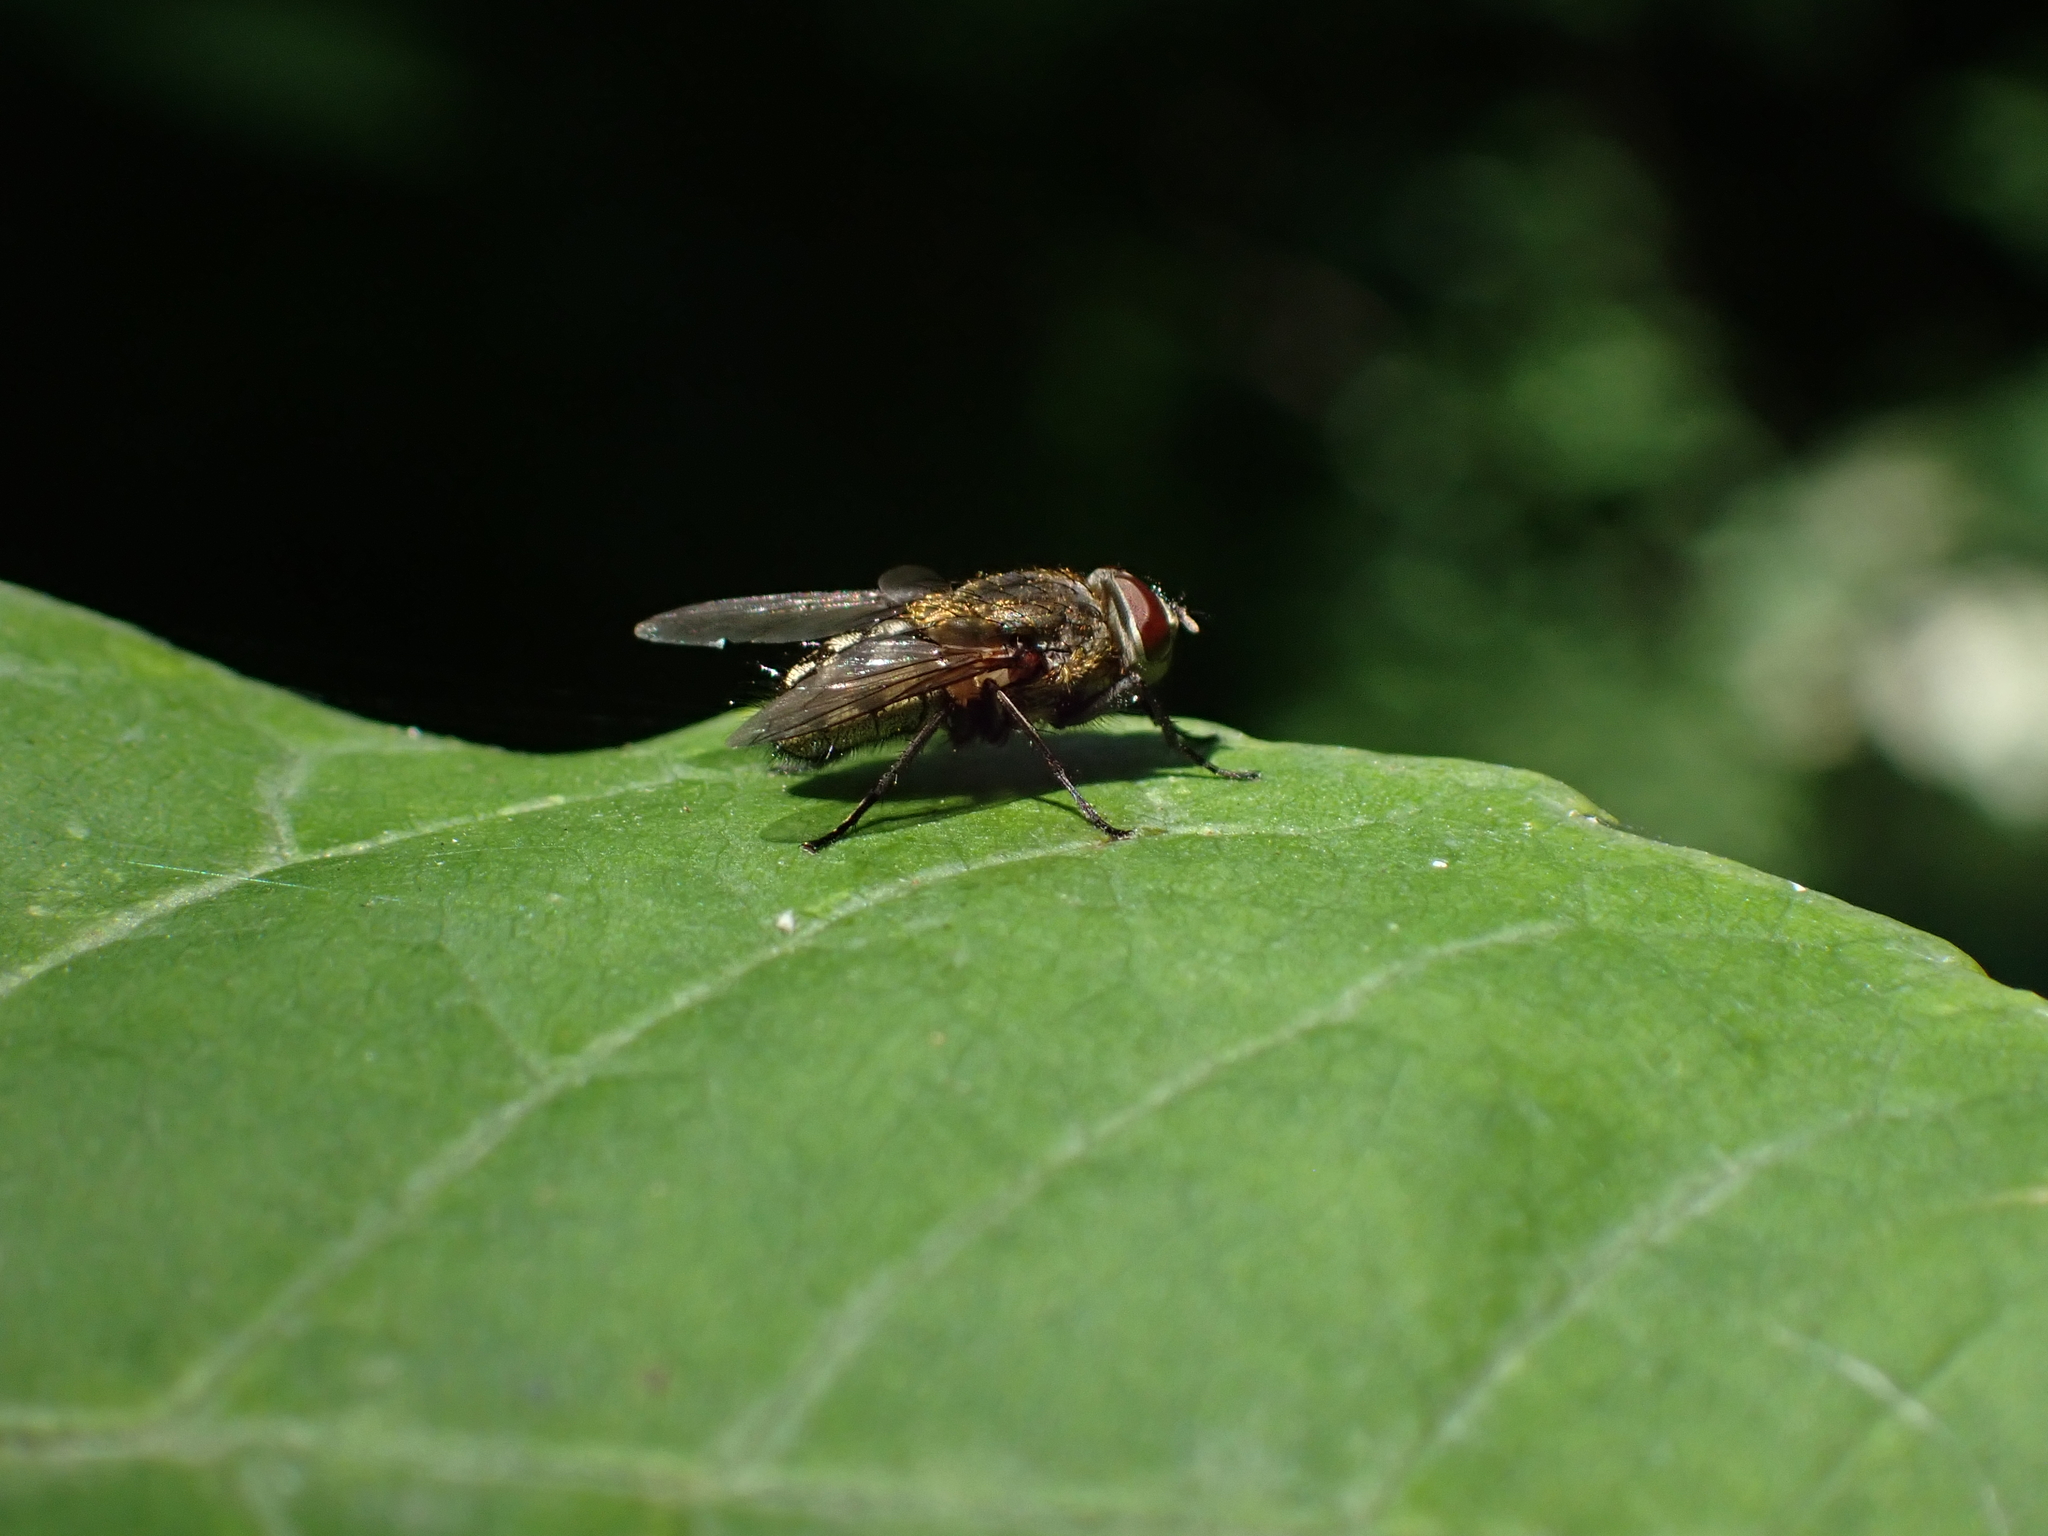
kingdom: Animalia
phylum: Arthropoda
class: Insecta
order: Diptera
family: Polleniidae
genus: Pollenia
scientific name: Pollenia
